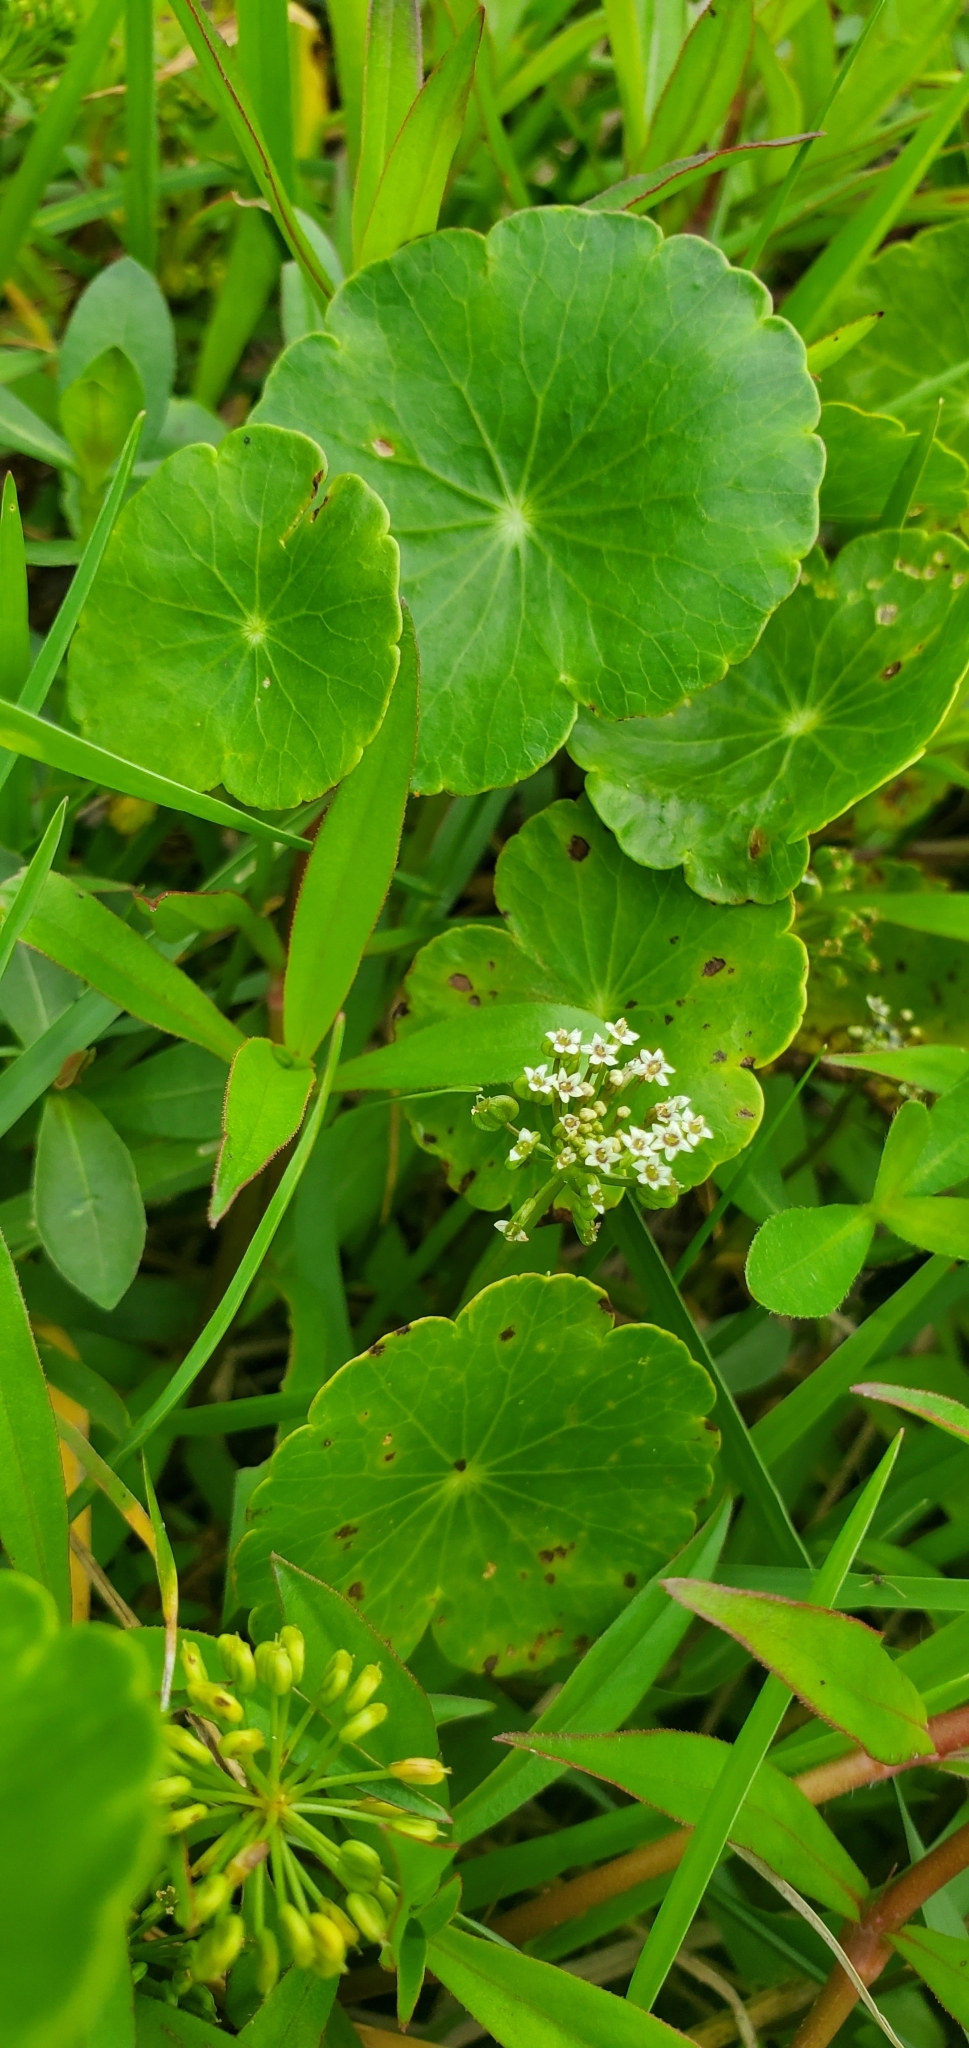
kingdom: Plantae
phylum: Tracheophyta
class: Magnoliopsida
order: Apiales
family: Araliaceae
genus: Hydrocotyle
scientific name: Hydrocotyle umbellata
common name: Water pennywort
